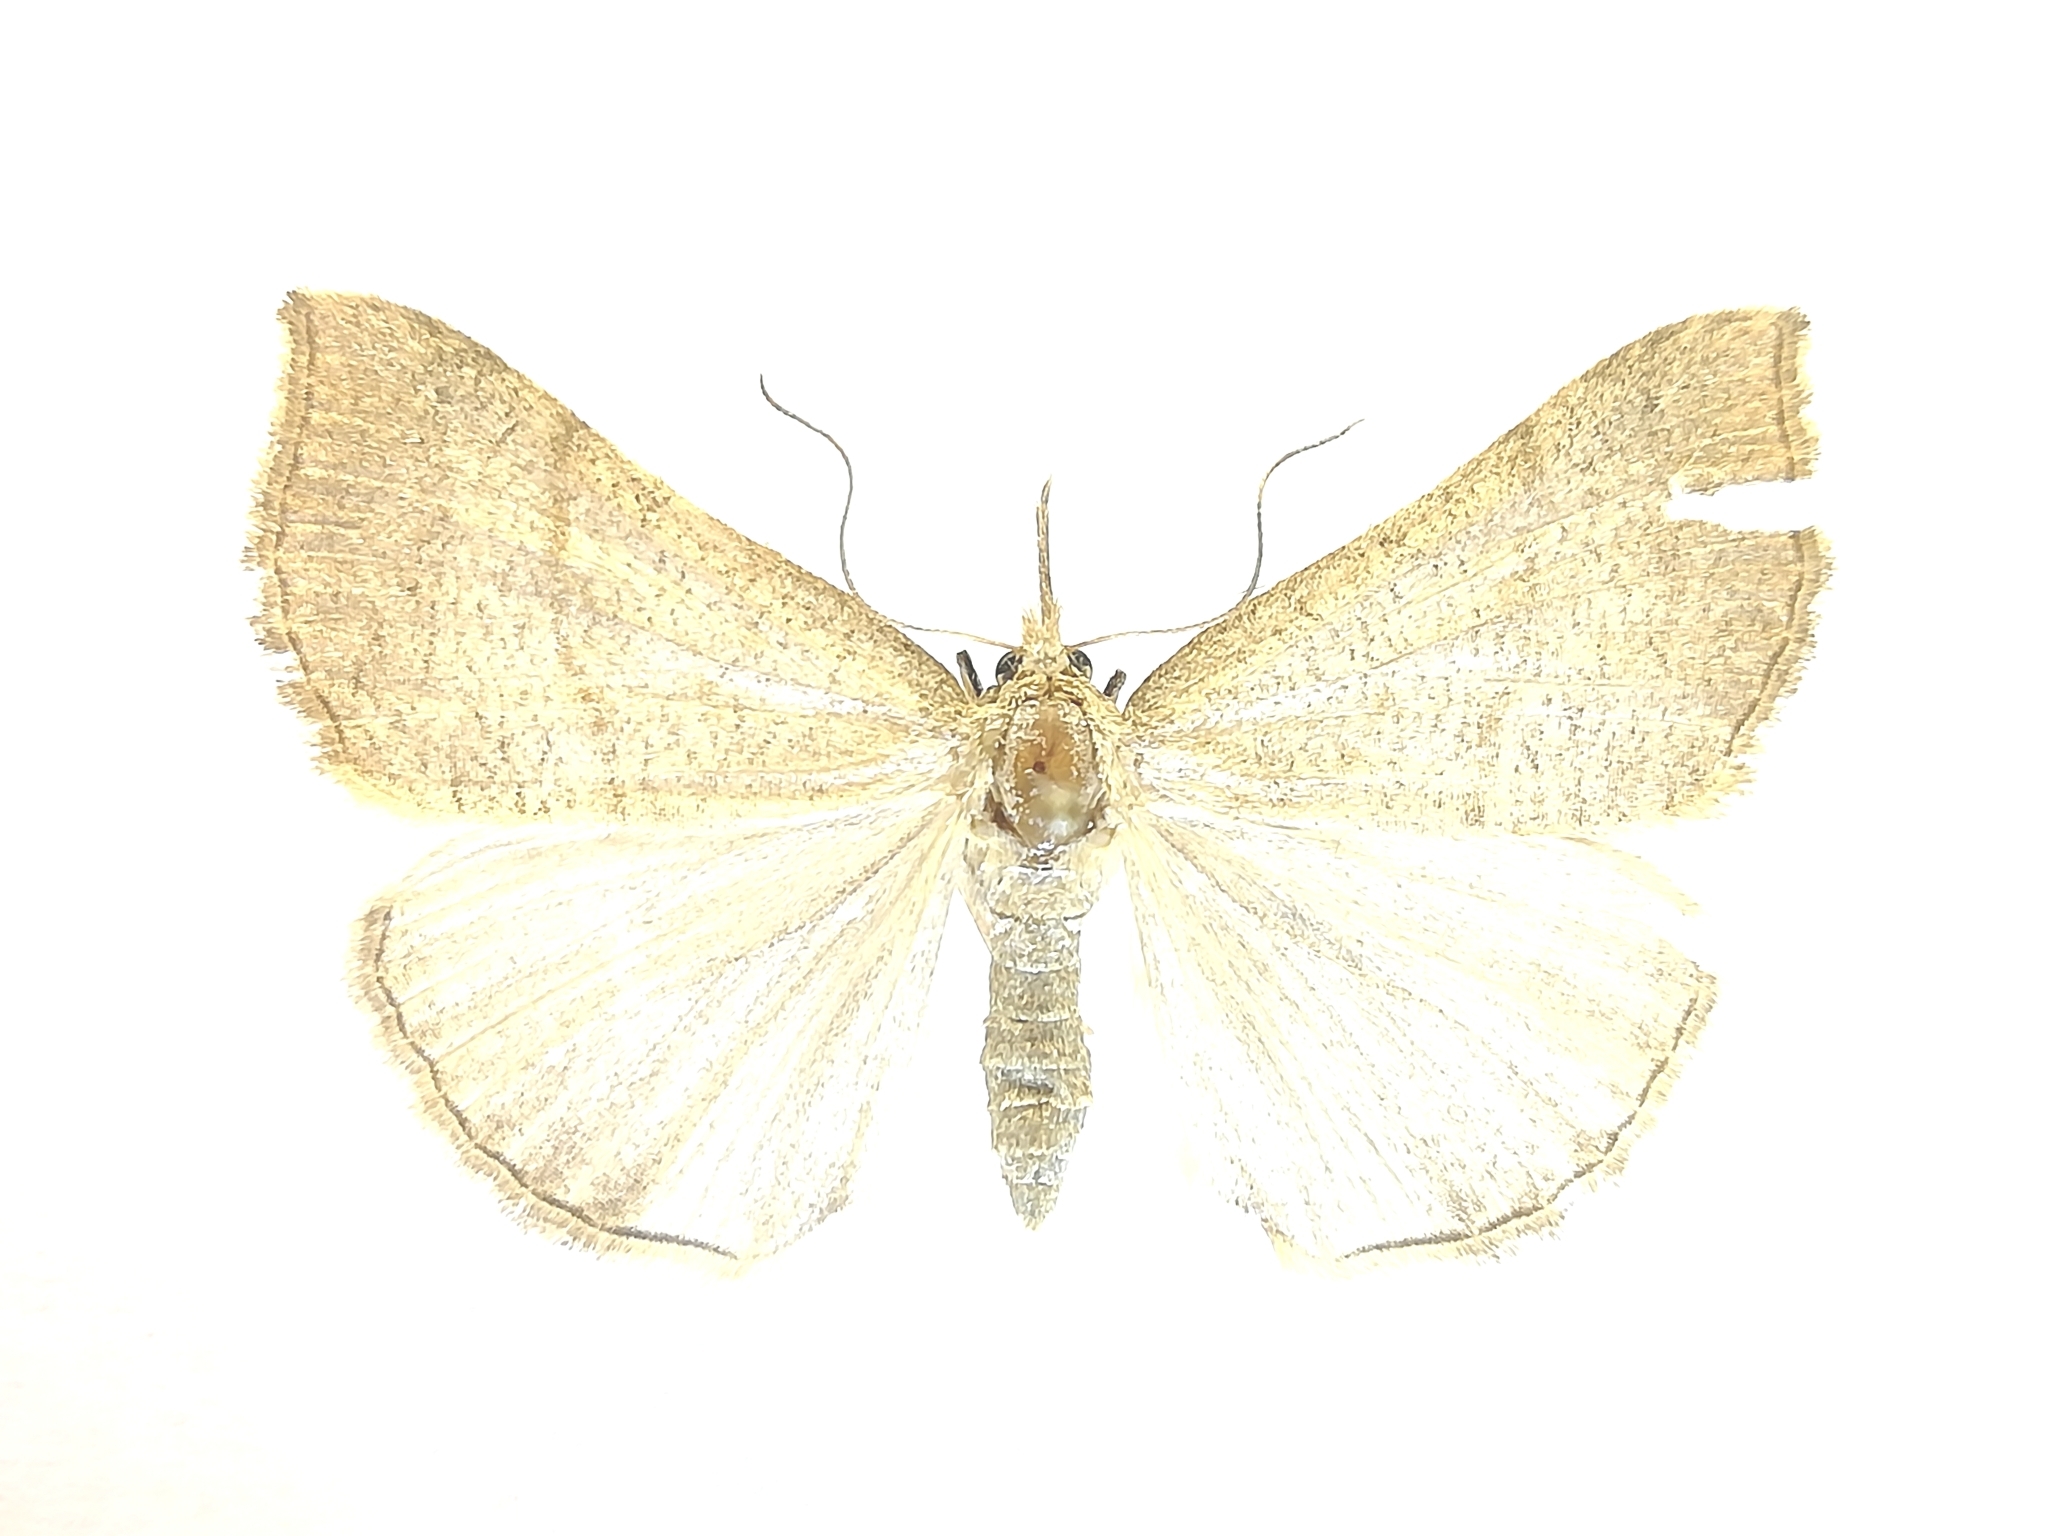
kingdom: Animalia
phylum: Arthropoda
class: Insecta
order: Lepidoptera
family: Erebidae
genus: Hypena
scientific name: Hypena proboscidalis
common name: Snout
